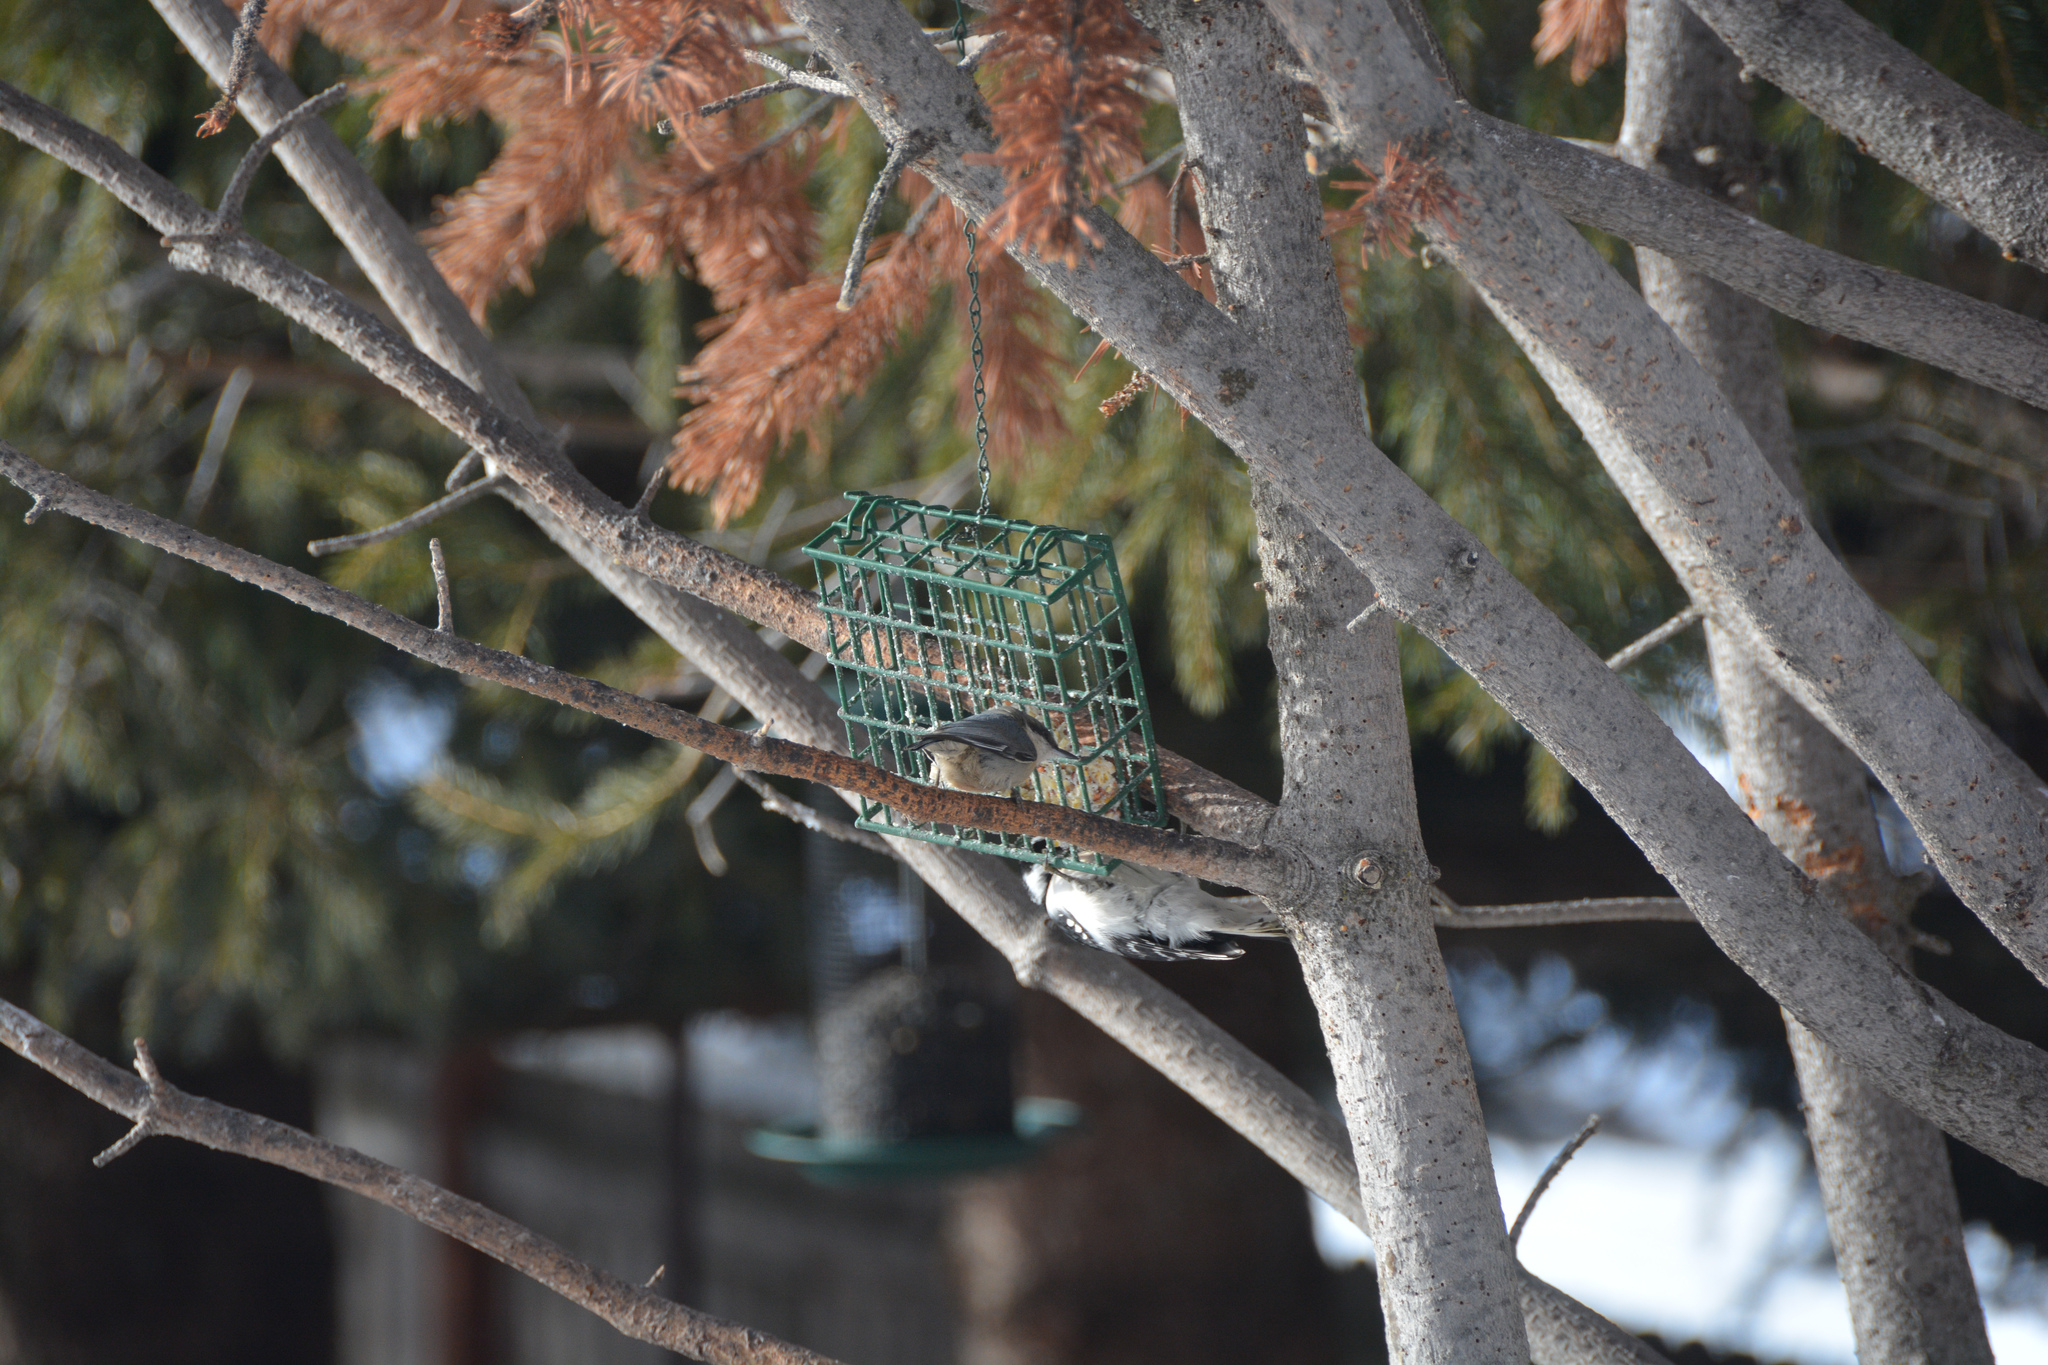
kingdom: Animalia
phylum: Chordata
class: Aves
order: Passeriformes
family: Sittidae
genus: Sitta
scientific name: Sitta pygmaea
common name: Pygmy nuthatch
